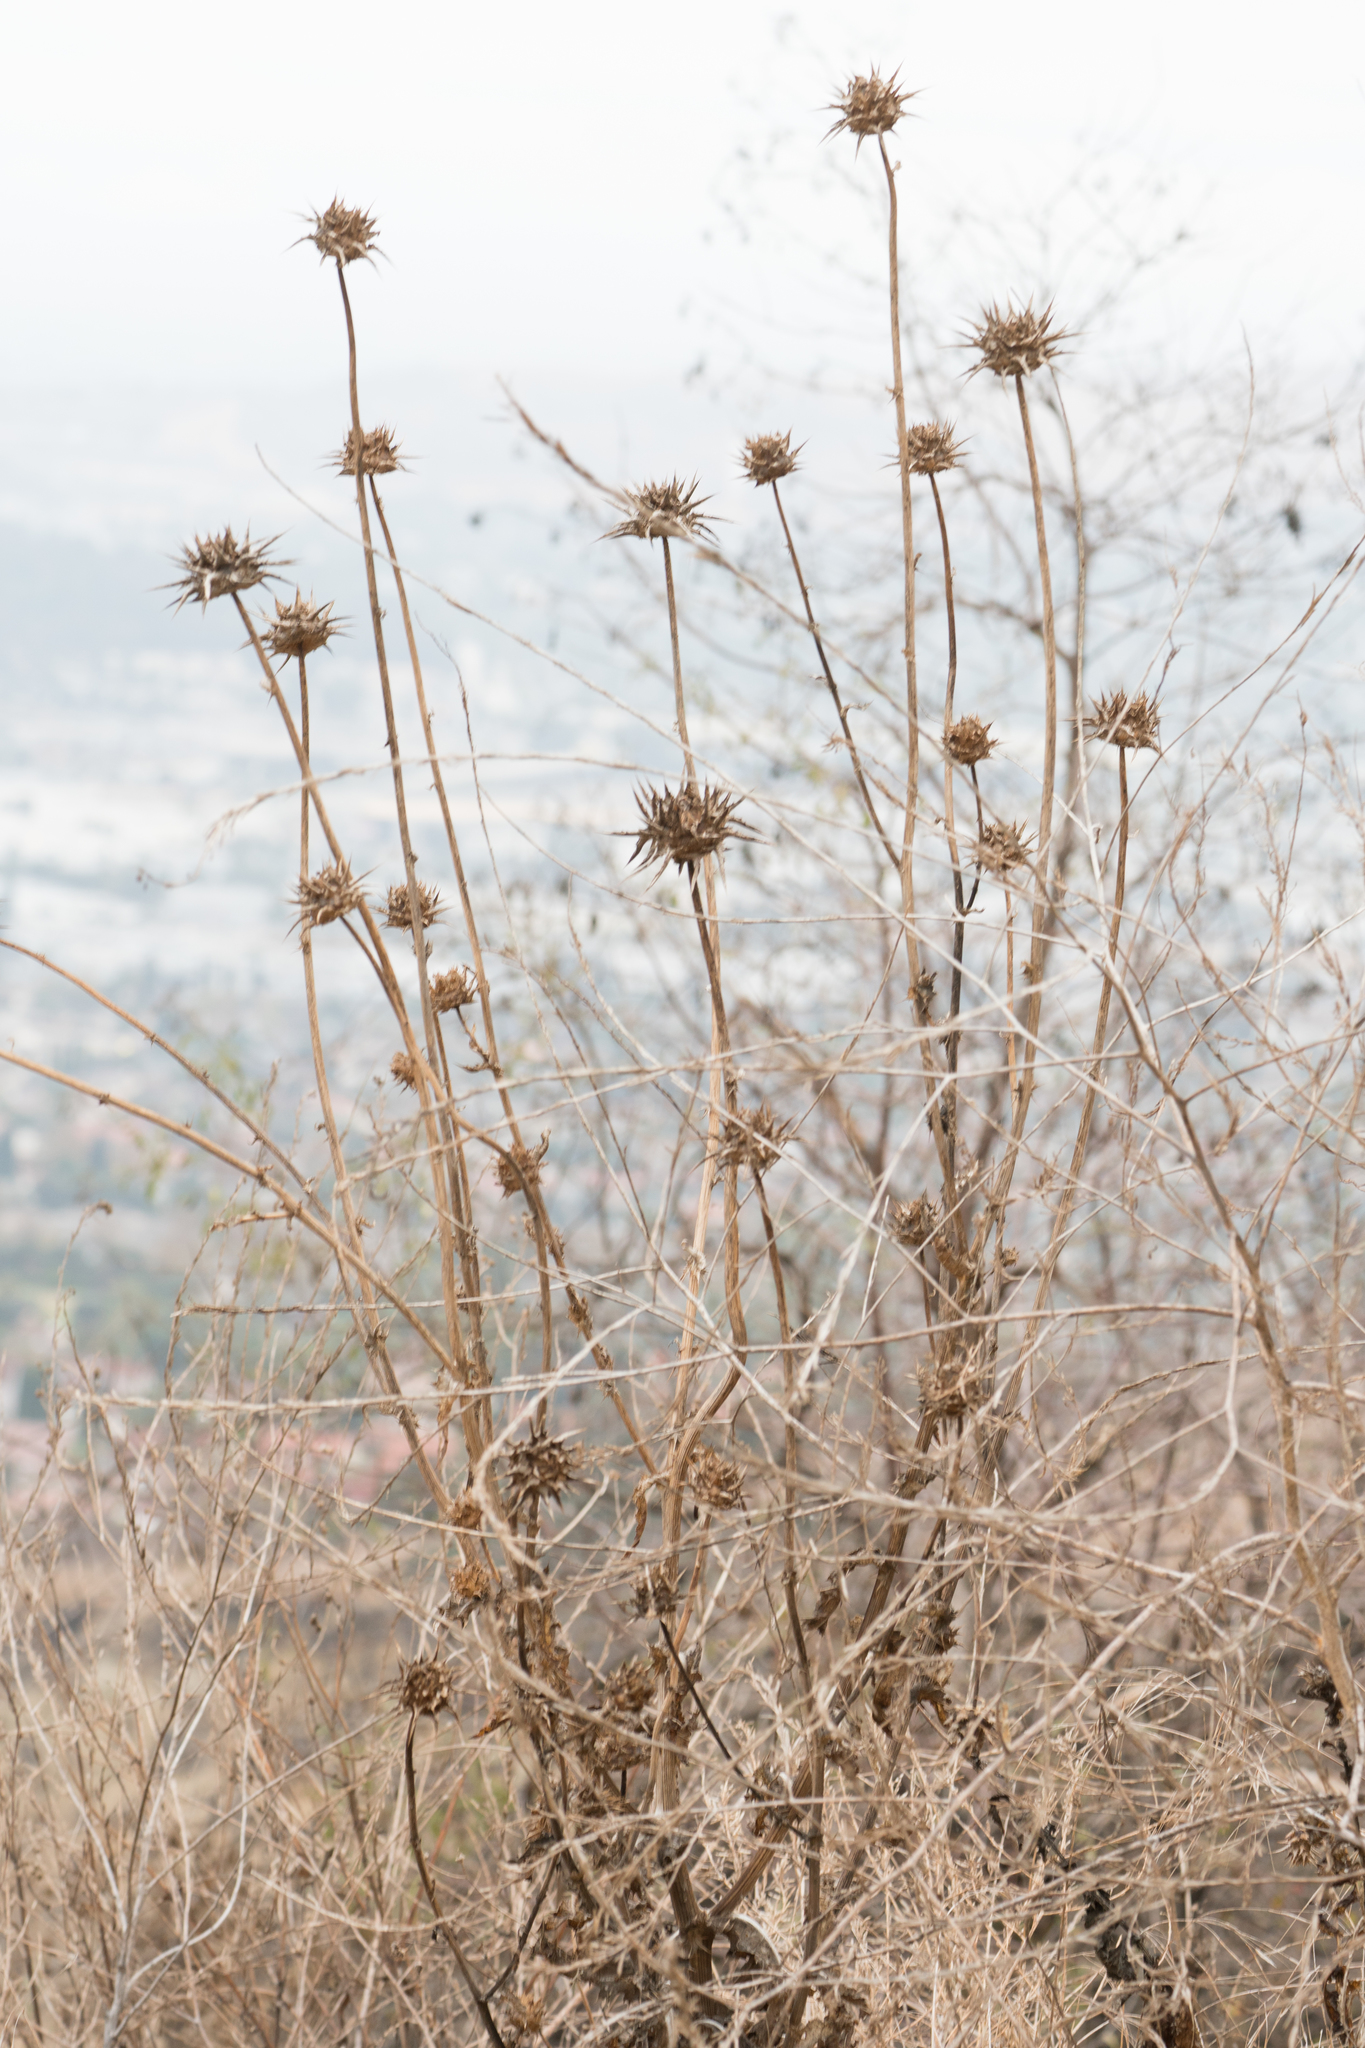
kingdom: Plantae
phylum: Tracheophyta
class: Magnoliopsida
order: Asterales
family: Asteraceae
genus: Silybum
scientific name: Silybum marianum
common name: Milk thistle
